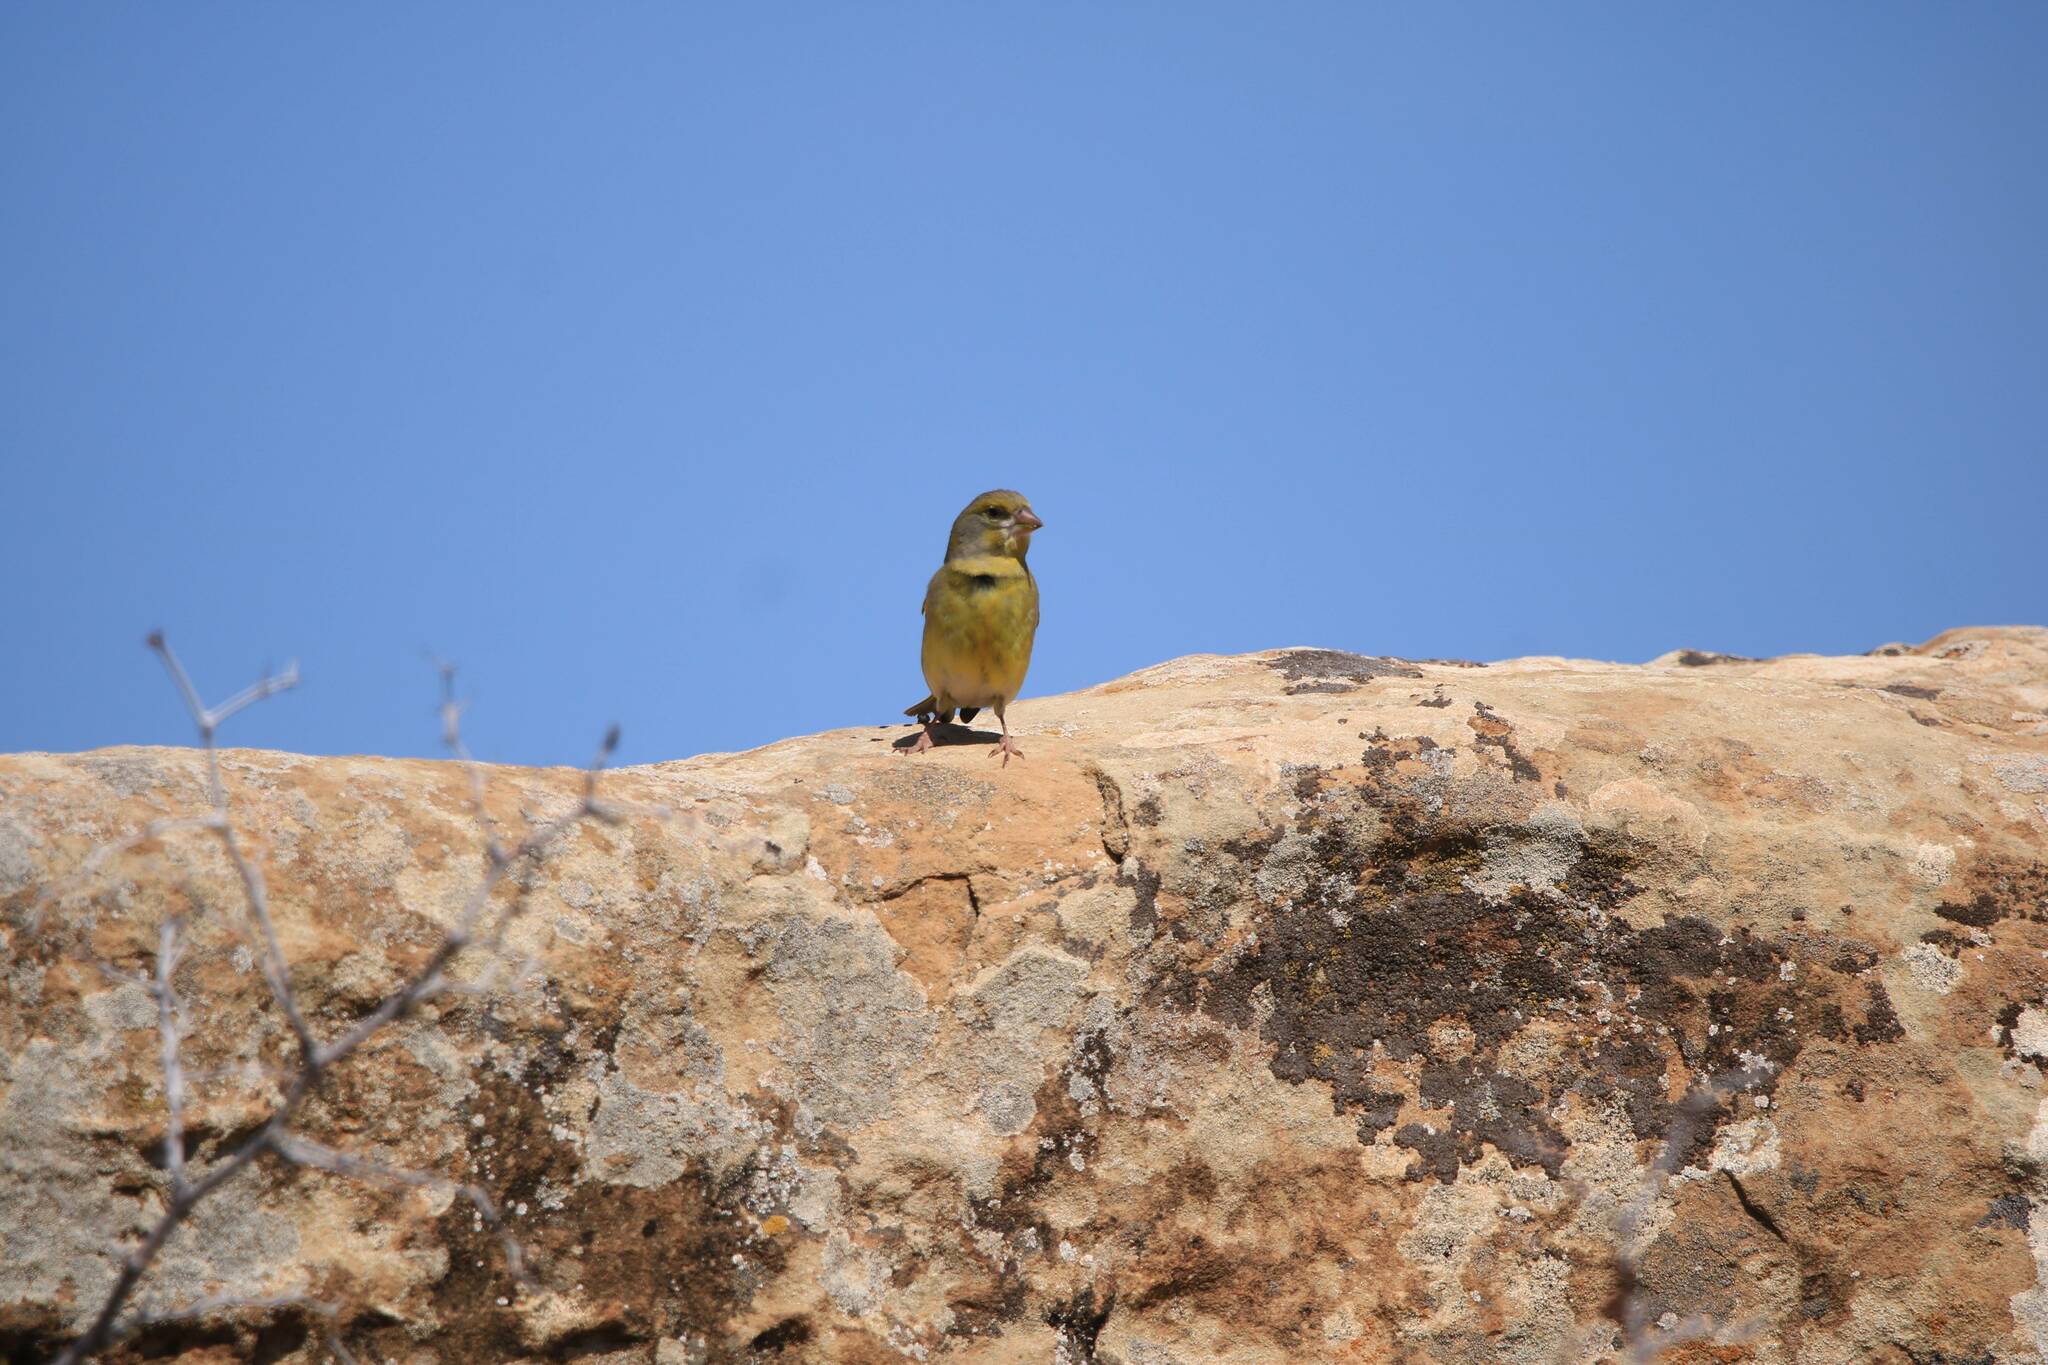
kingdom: Plantae
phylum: Tracheophyta
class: Liliopsida
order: Poales
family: Poaceae
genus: Chloris
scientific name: Chloris chloris
